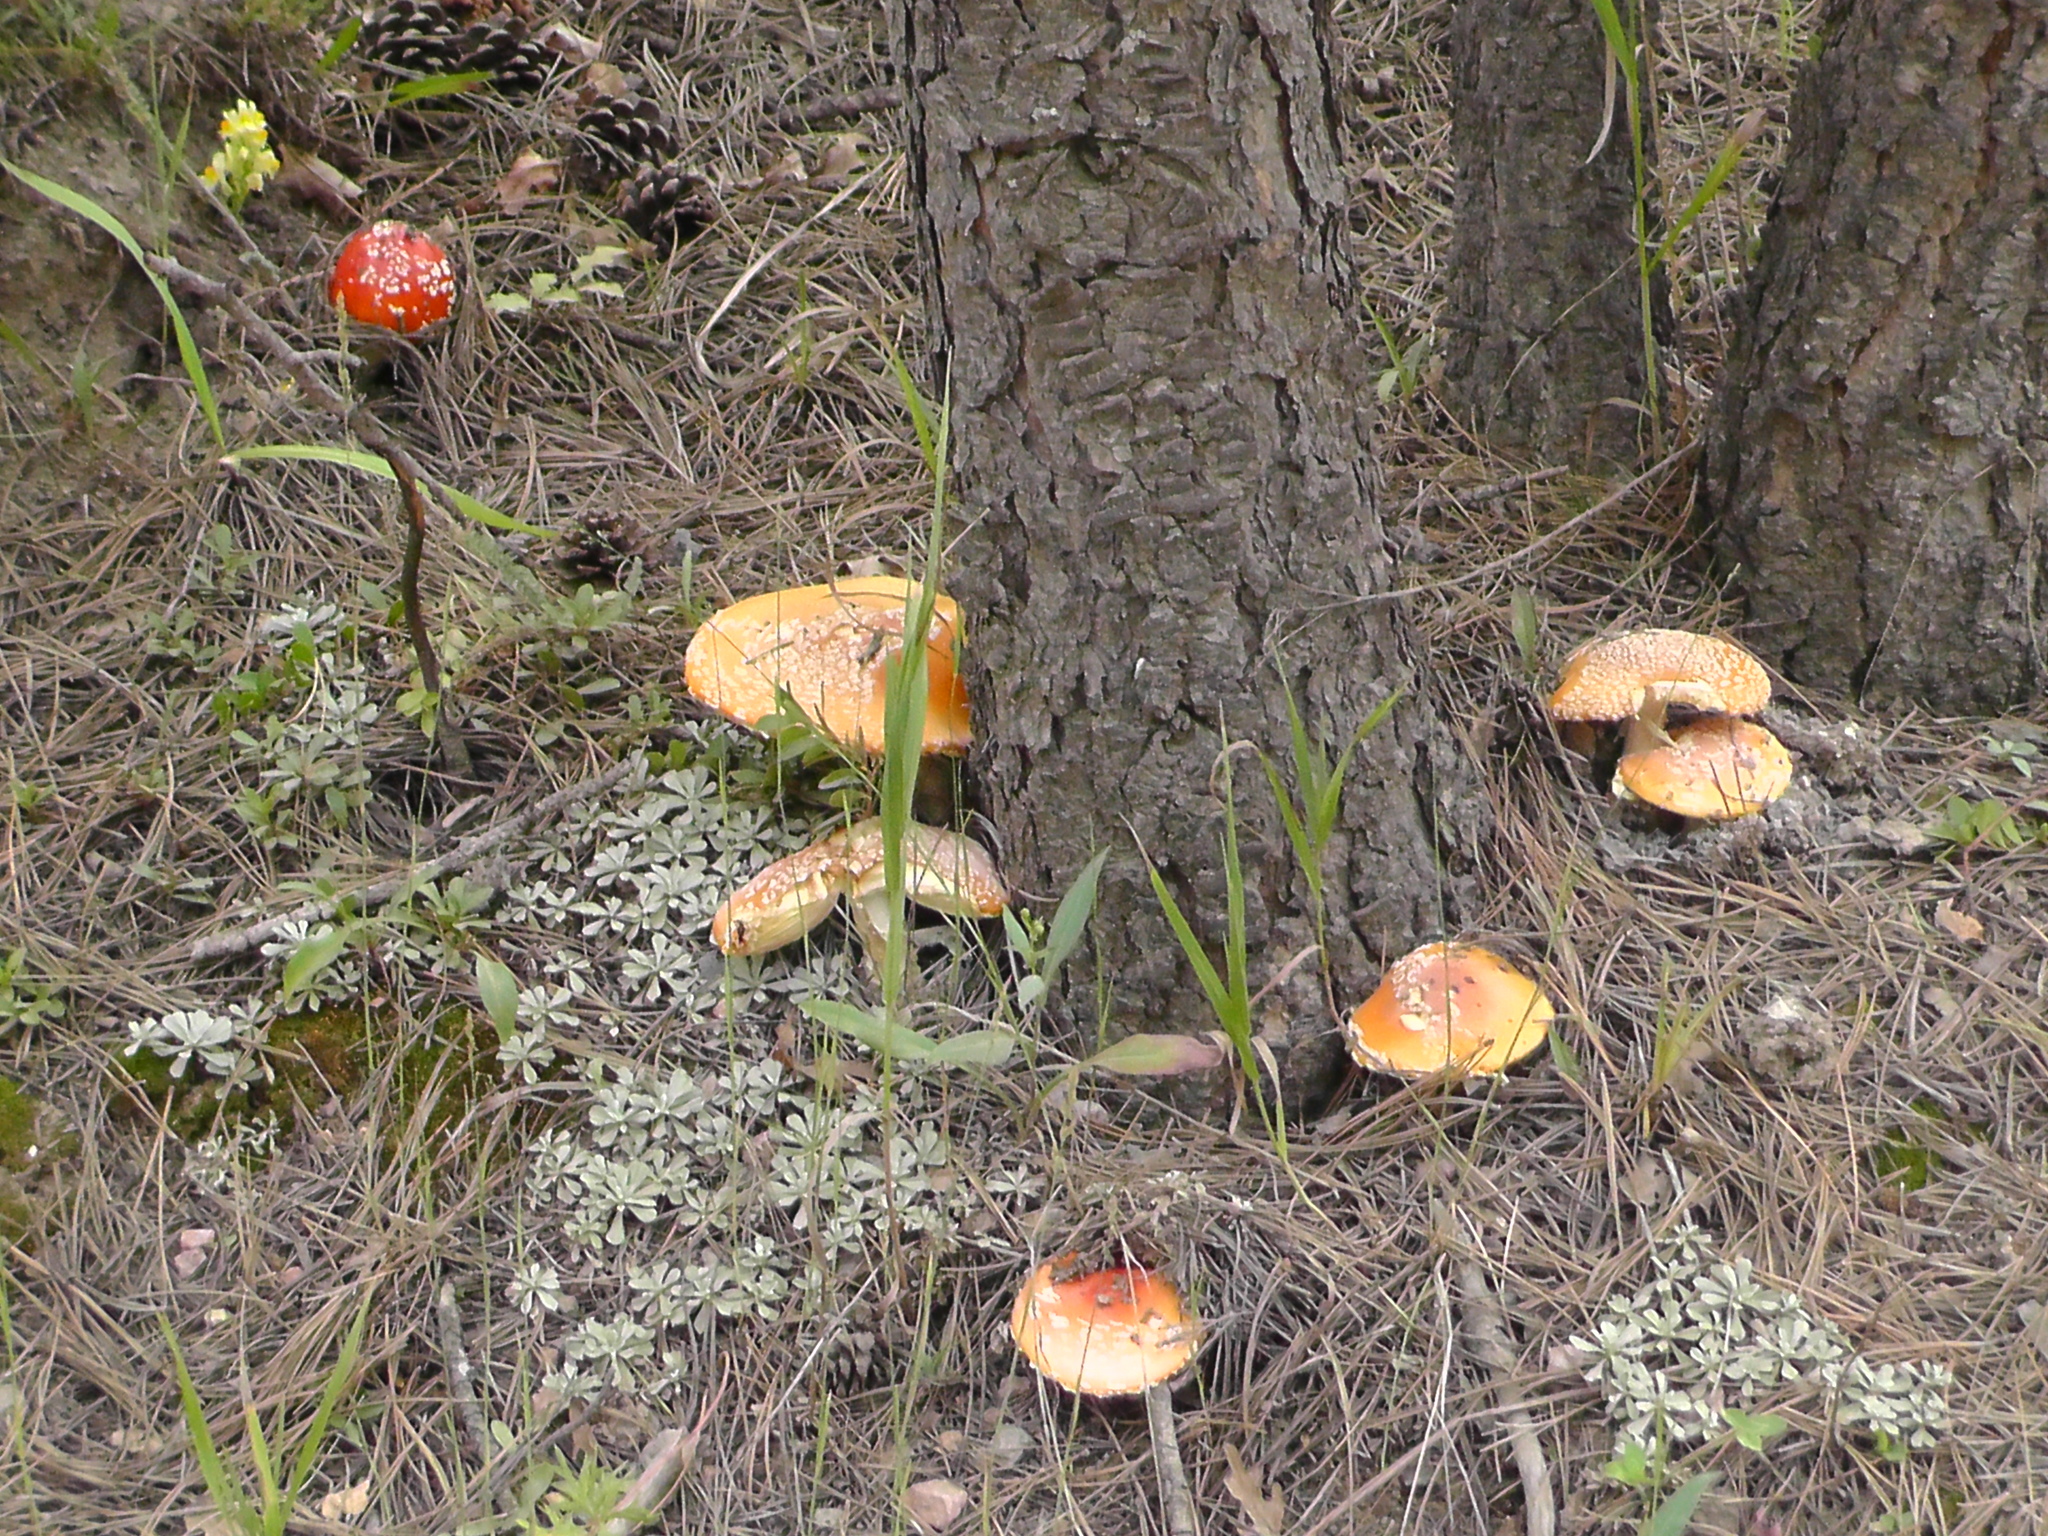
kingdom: Fungi
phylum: Basidiomycota
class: Agaricomycetes
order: Agaricales
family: Amanitaceae
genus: Amanita
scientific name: Amanita muscaria
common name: Fly agaric
